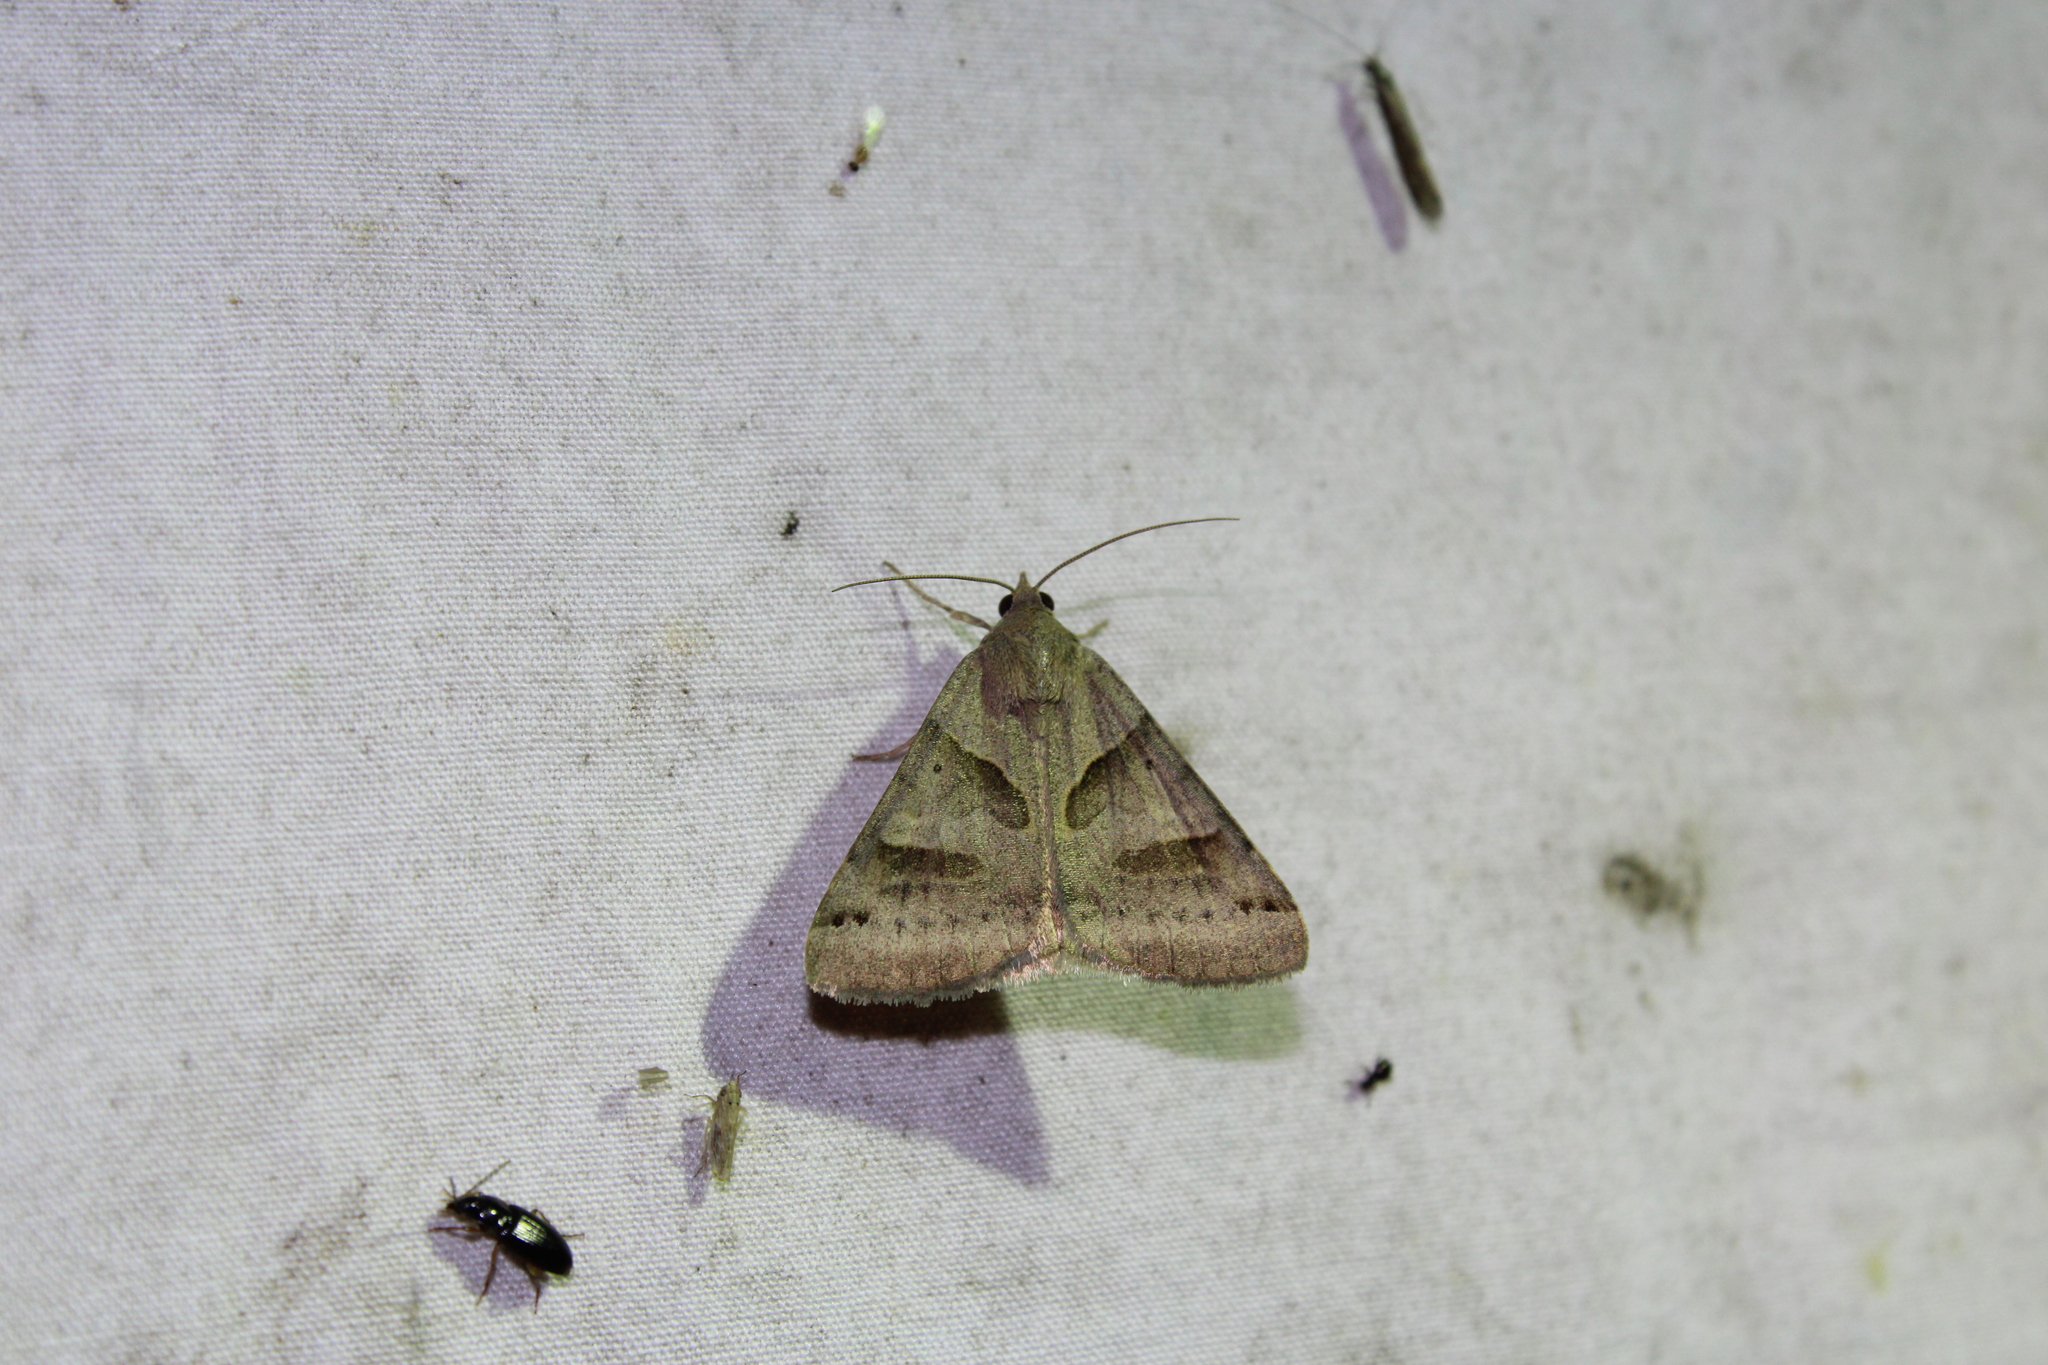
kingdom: Animalia
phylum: Arthropoda
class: Insecta
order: Lepidoptera
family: Erebidae
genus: Caenurgina
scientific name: Caenurgina erechtea
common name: Forage looper moth
